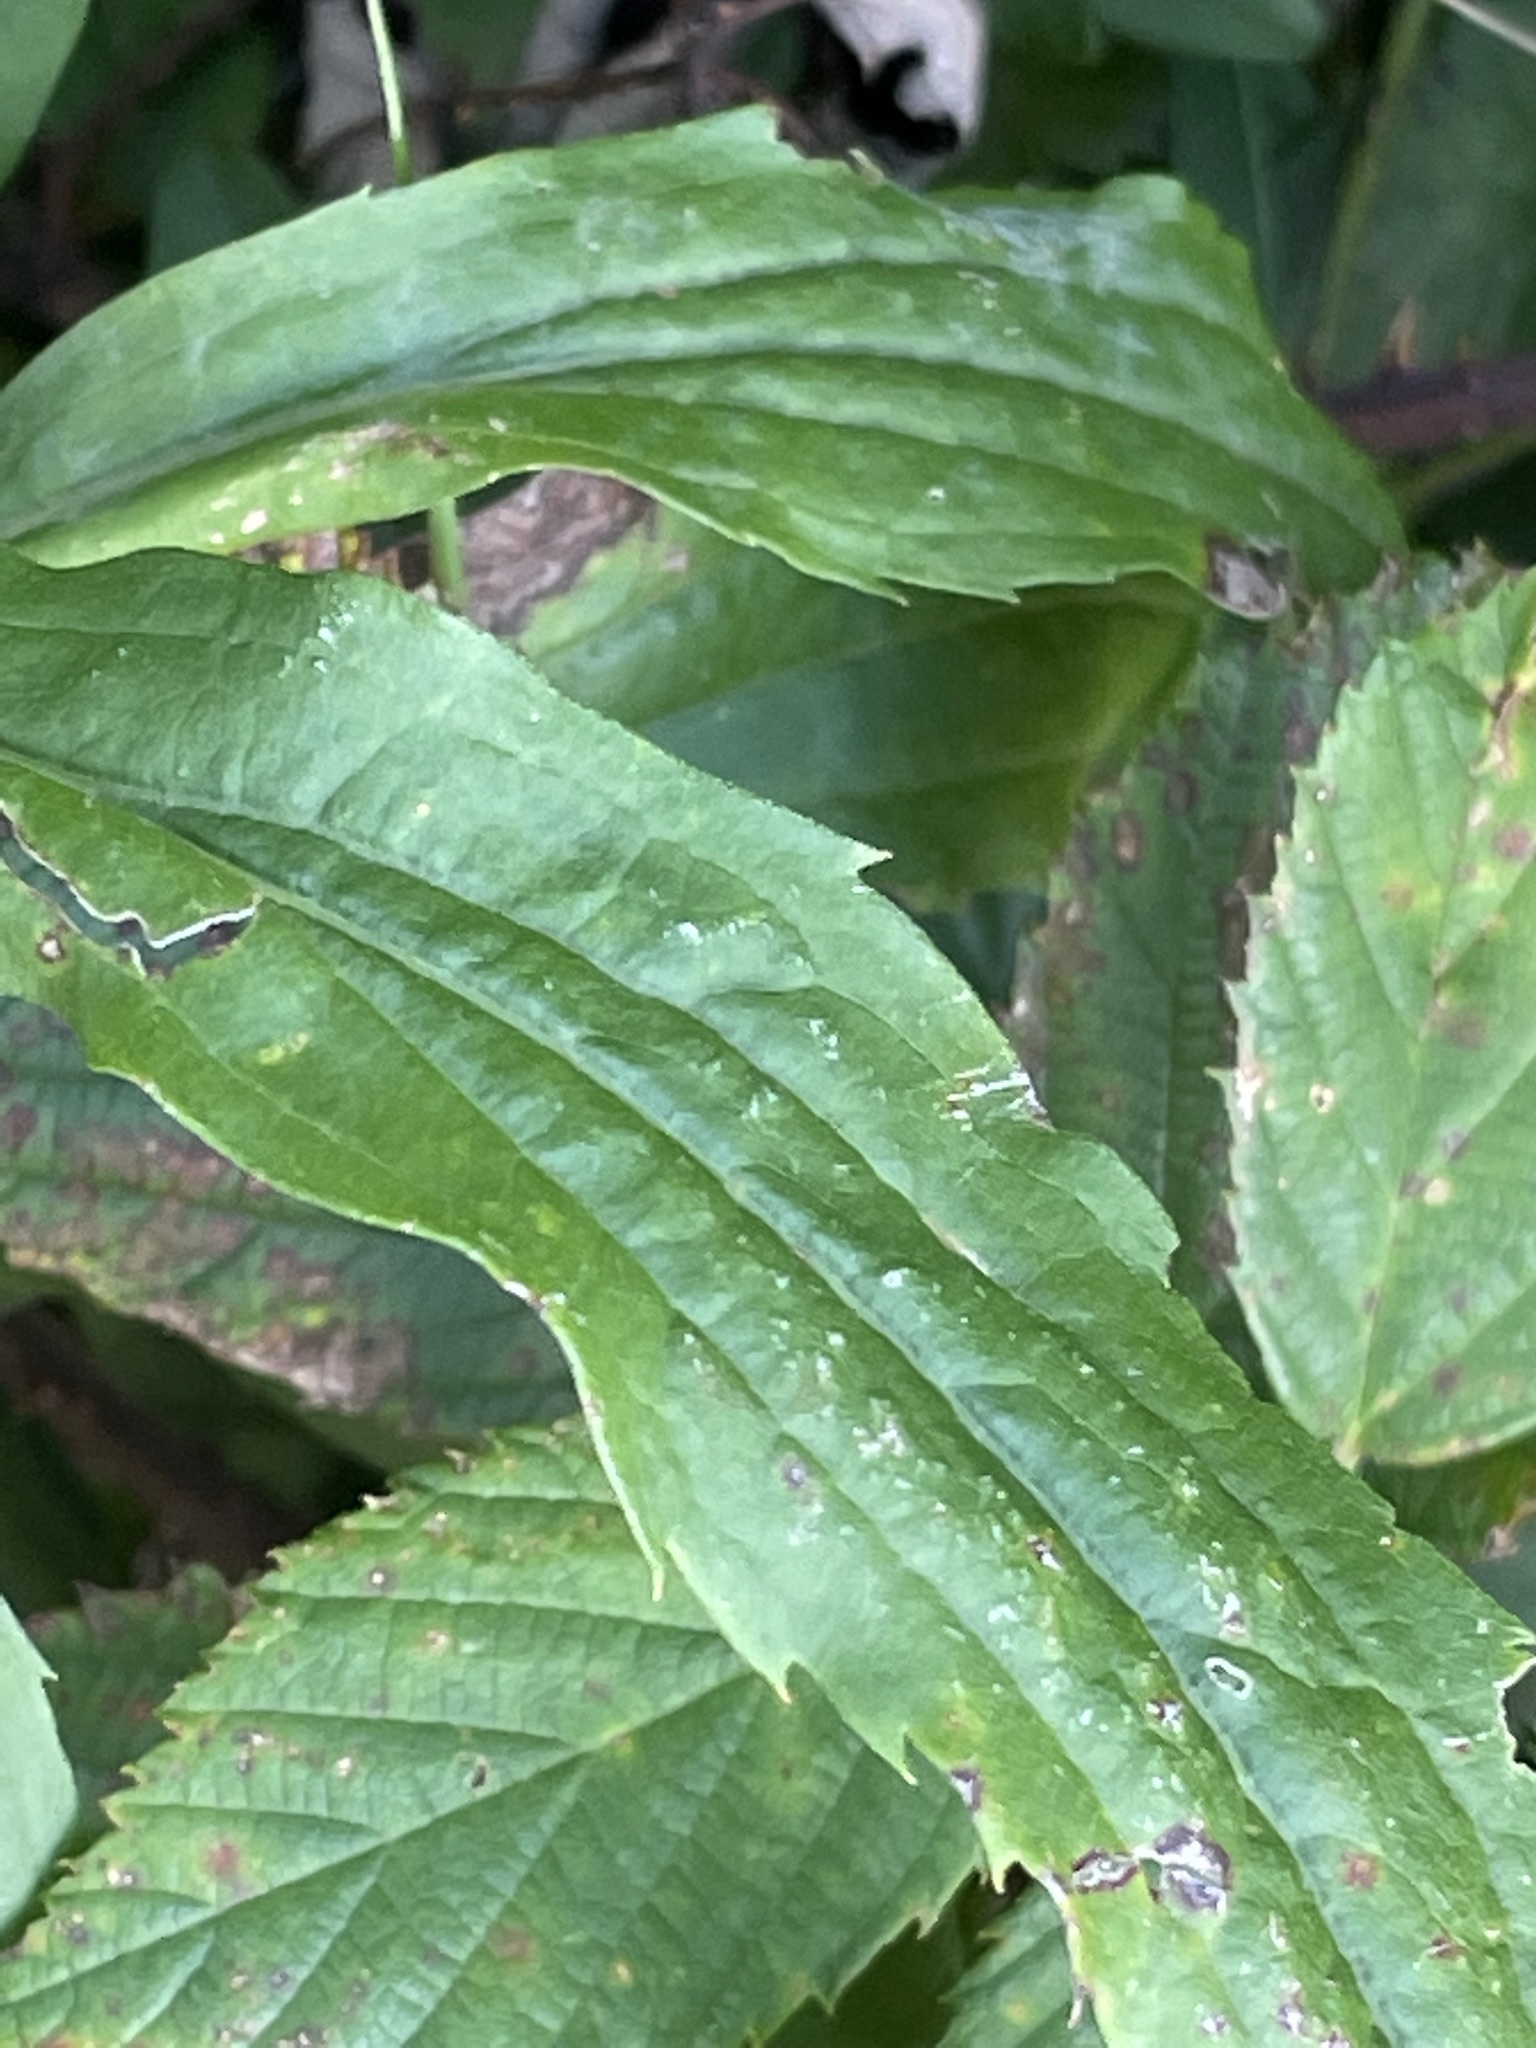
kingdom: Plantae
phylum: Tracheophyta
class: Magnoliopsida
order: Asterales
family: Asteraceae
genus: Solidago
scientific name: Solidago canadensis
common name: Canada goldenrod
